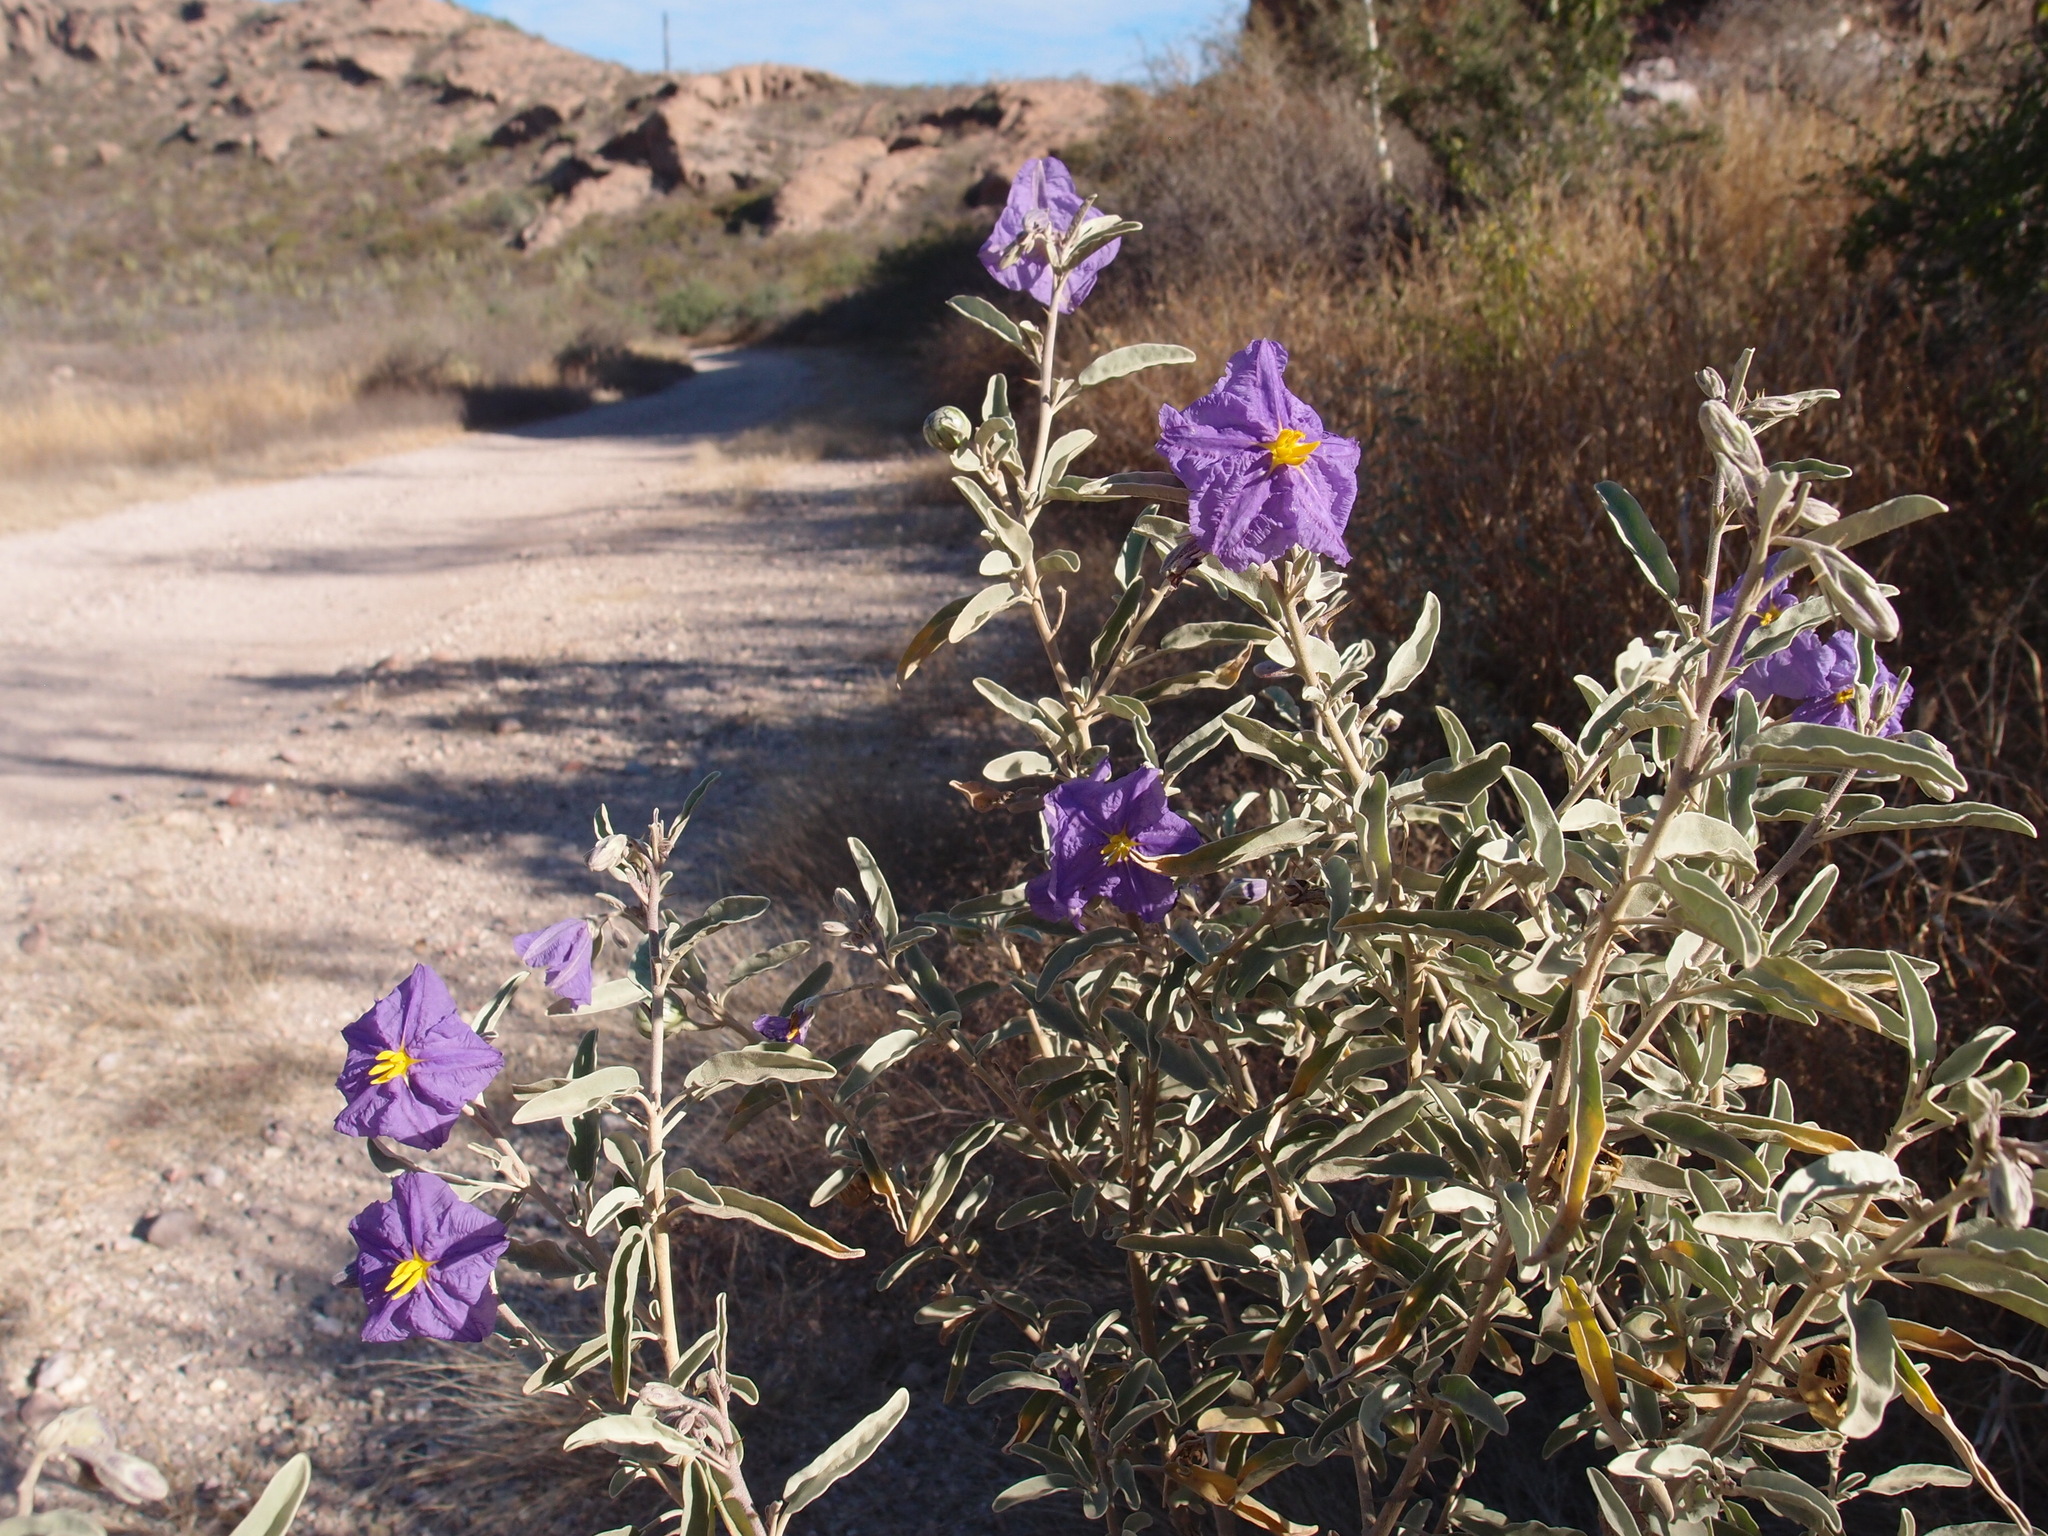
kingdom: Plantae
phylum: Tracheophyta
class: Magnoliopsida
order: Solanales
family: Solanaceae
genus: Solanum
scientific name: Solanum hindsianum
